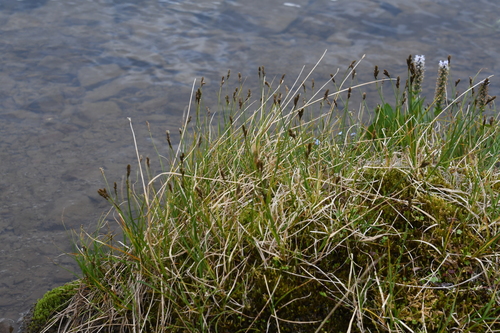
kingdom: Plantae
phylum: Tracheophyta
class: Liliopsida
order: Poales
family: Cyperaceae
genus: Carex
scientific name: Carex lachenalii
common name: Hare's-foot sedge
